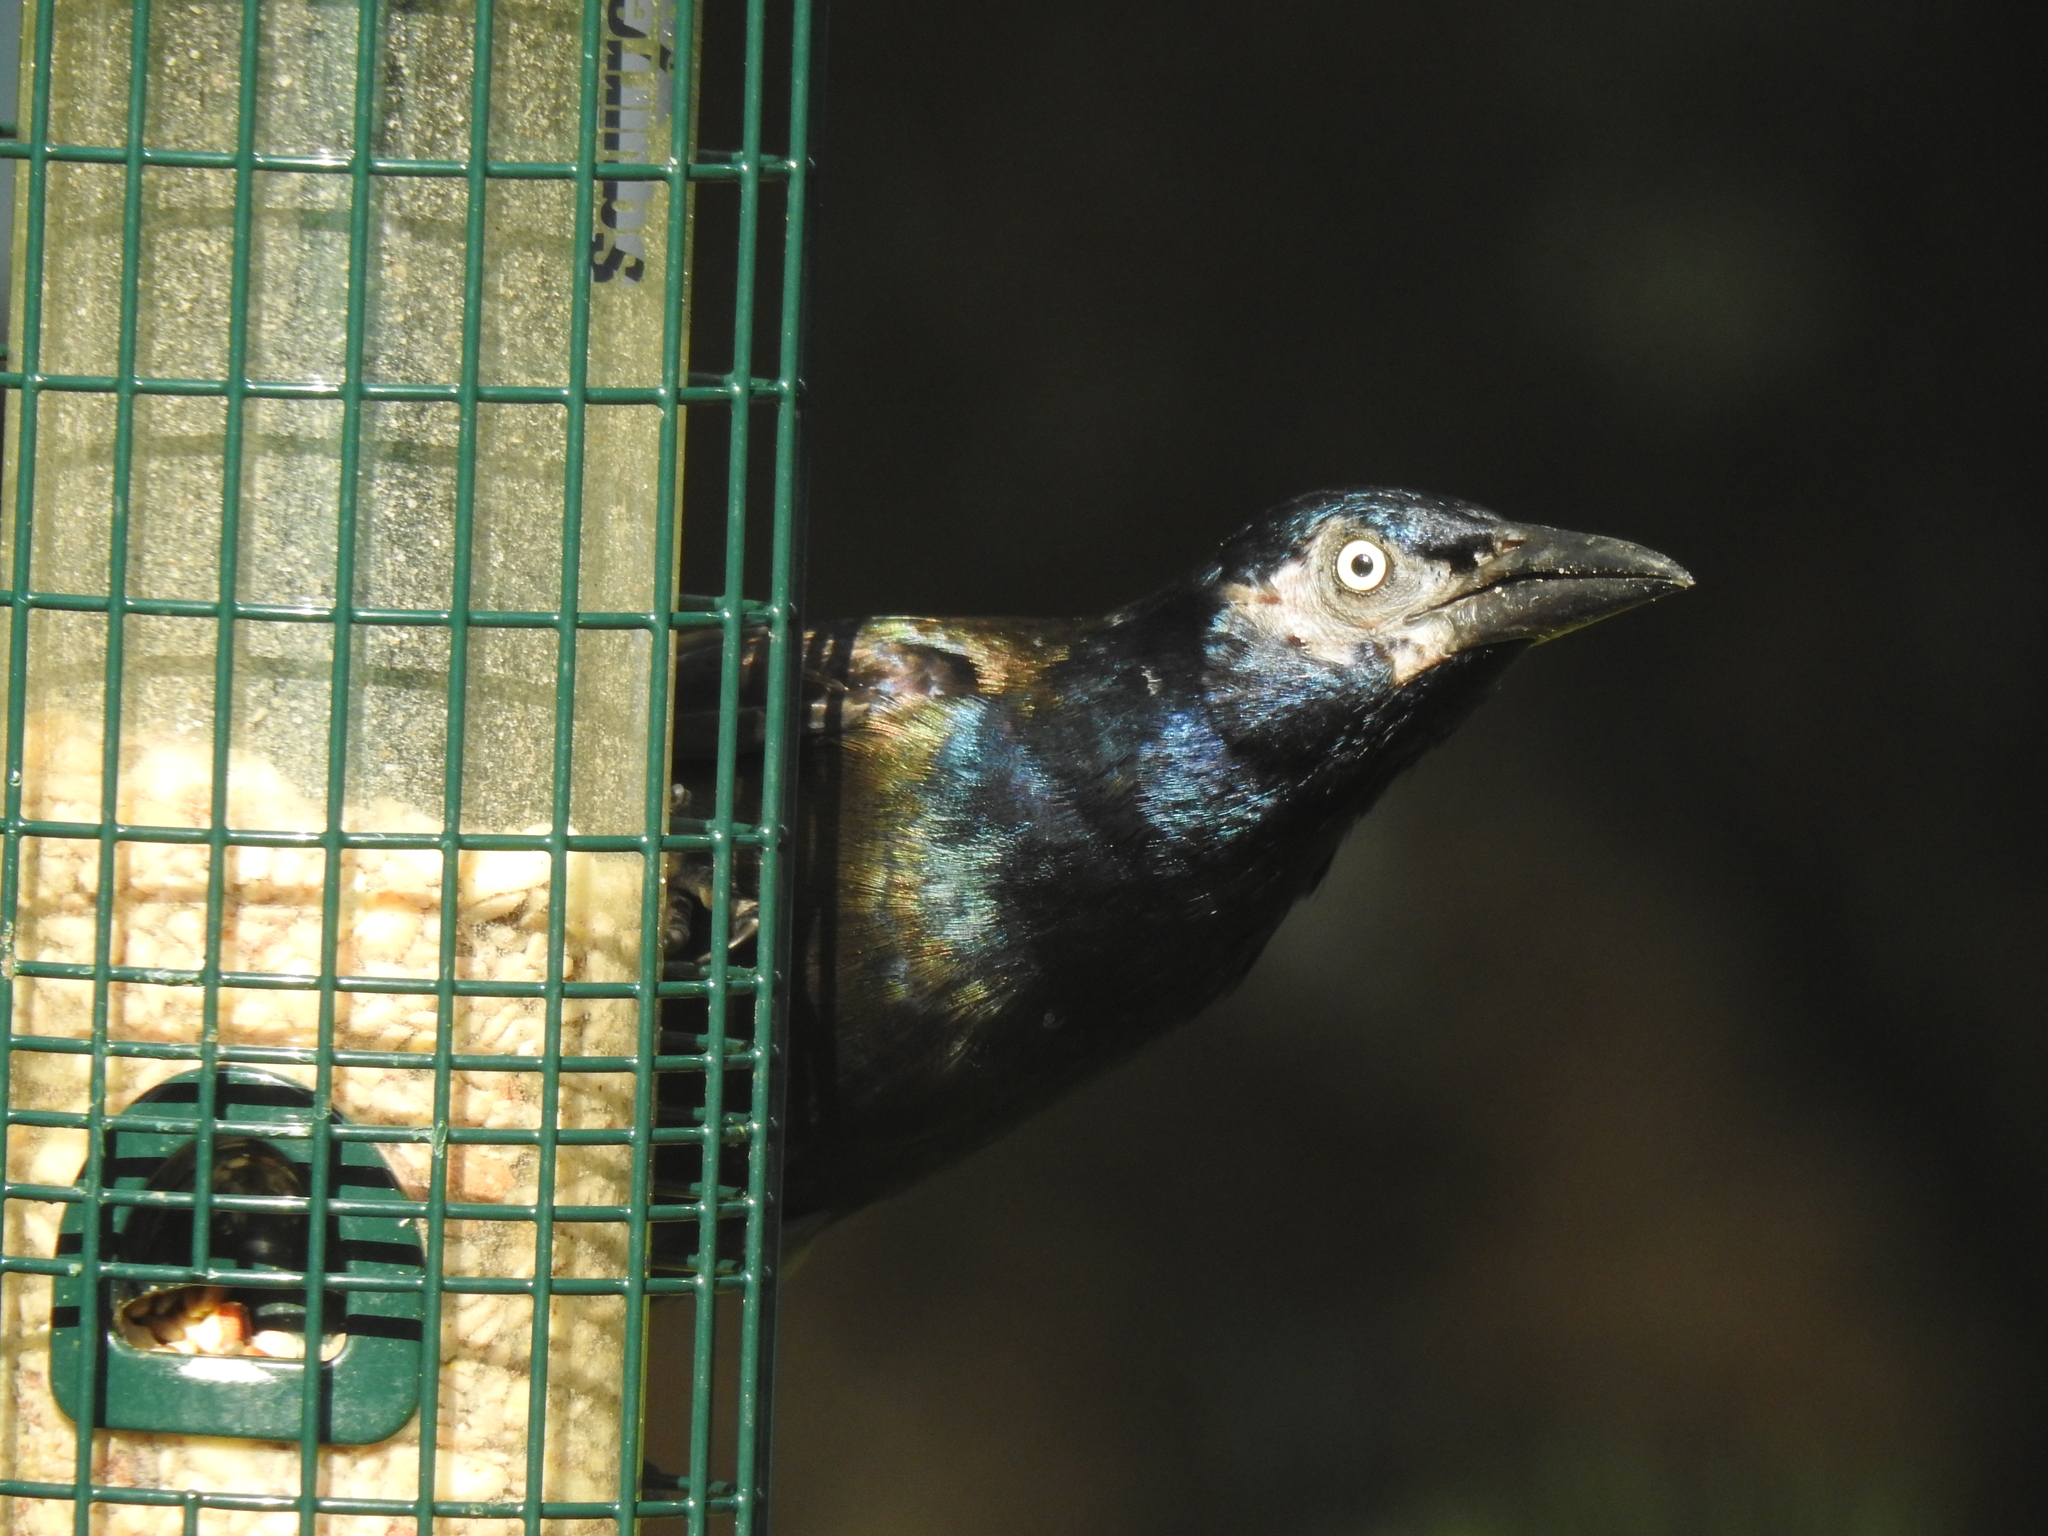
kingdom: Animalia
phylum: Chordata
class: Aves
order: Passeriformes
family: Icteridae
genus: Quiscalus
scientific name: Quiscalus quiscula
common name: Common grackle
